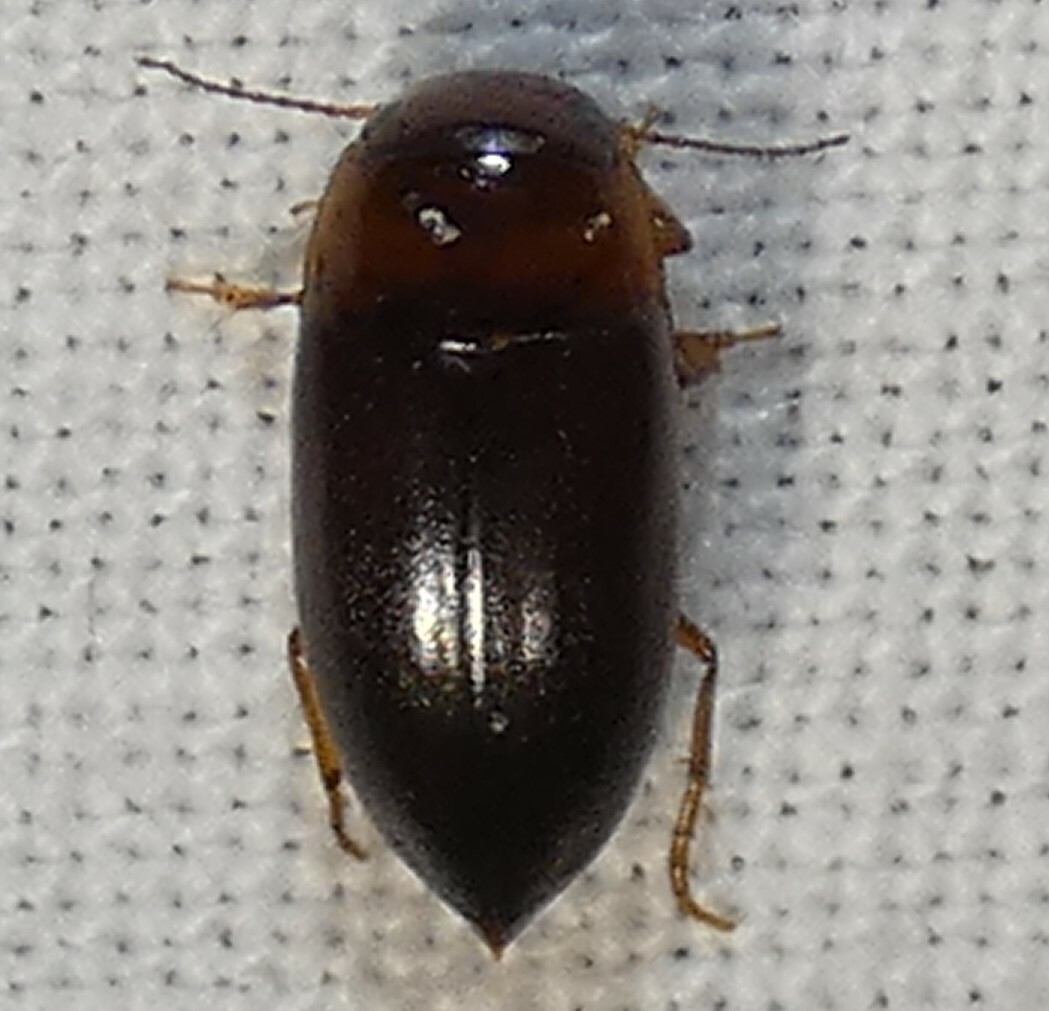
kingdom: Animalia
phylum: Arthropoda
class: Insecta
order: Coleoptera
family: Dytiscidae
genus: Celina
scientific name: Celina
